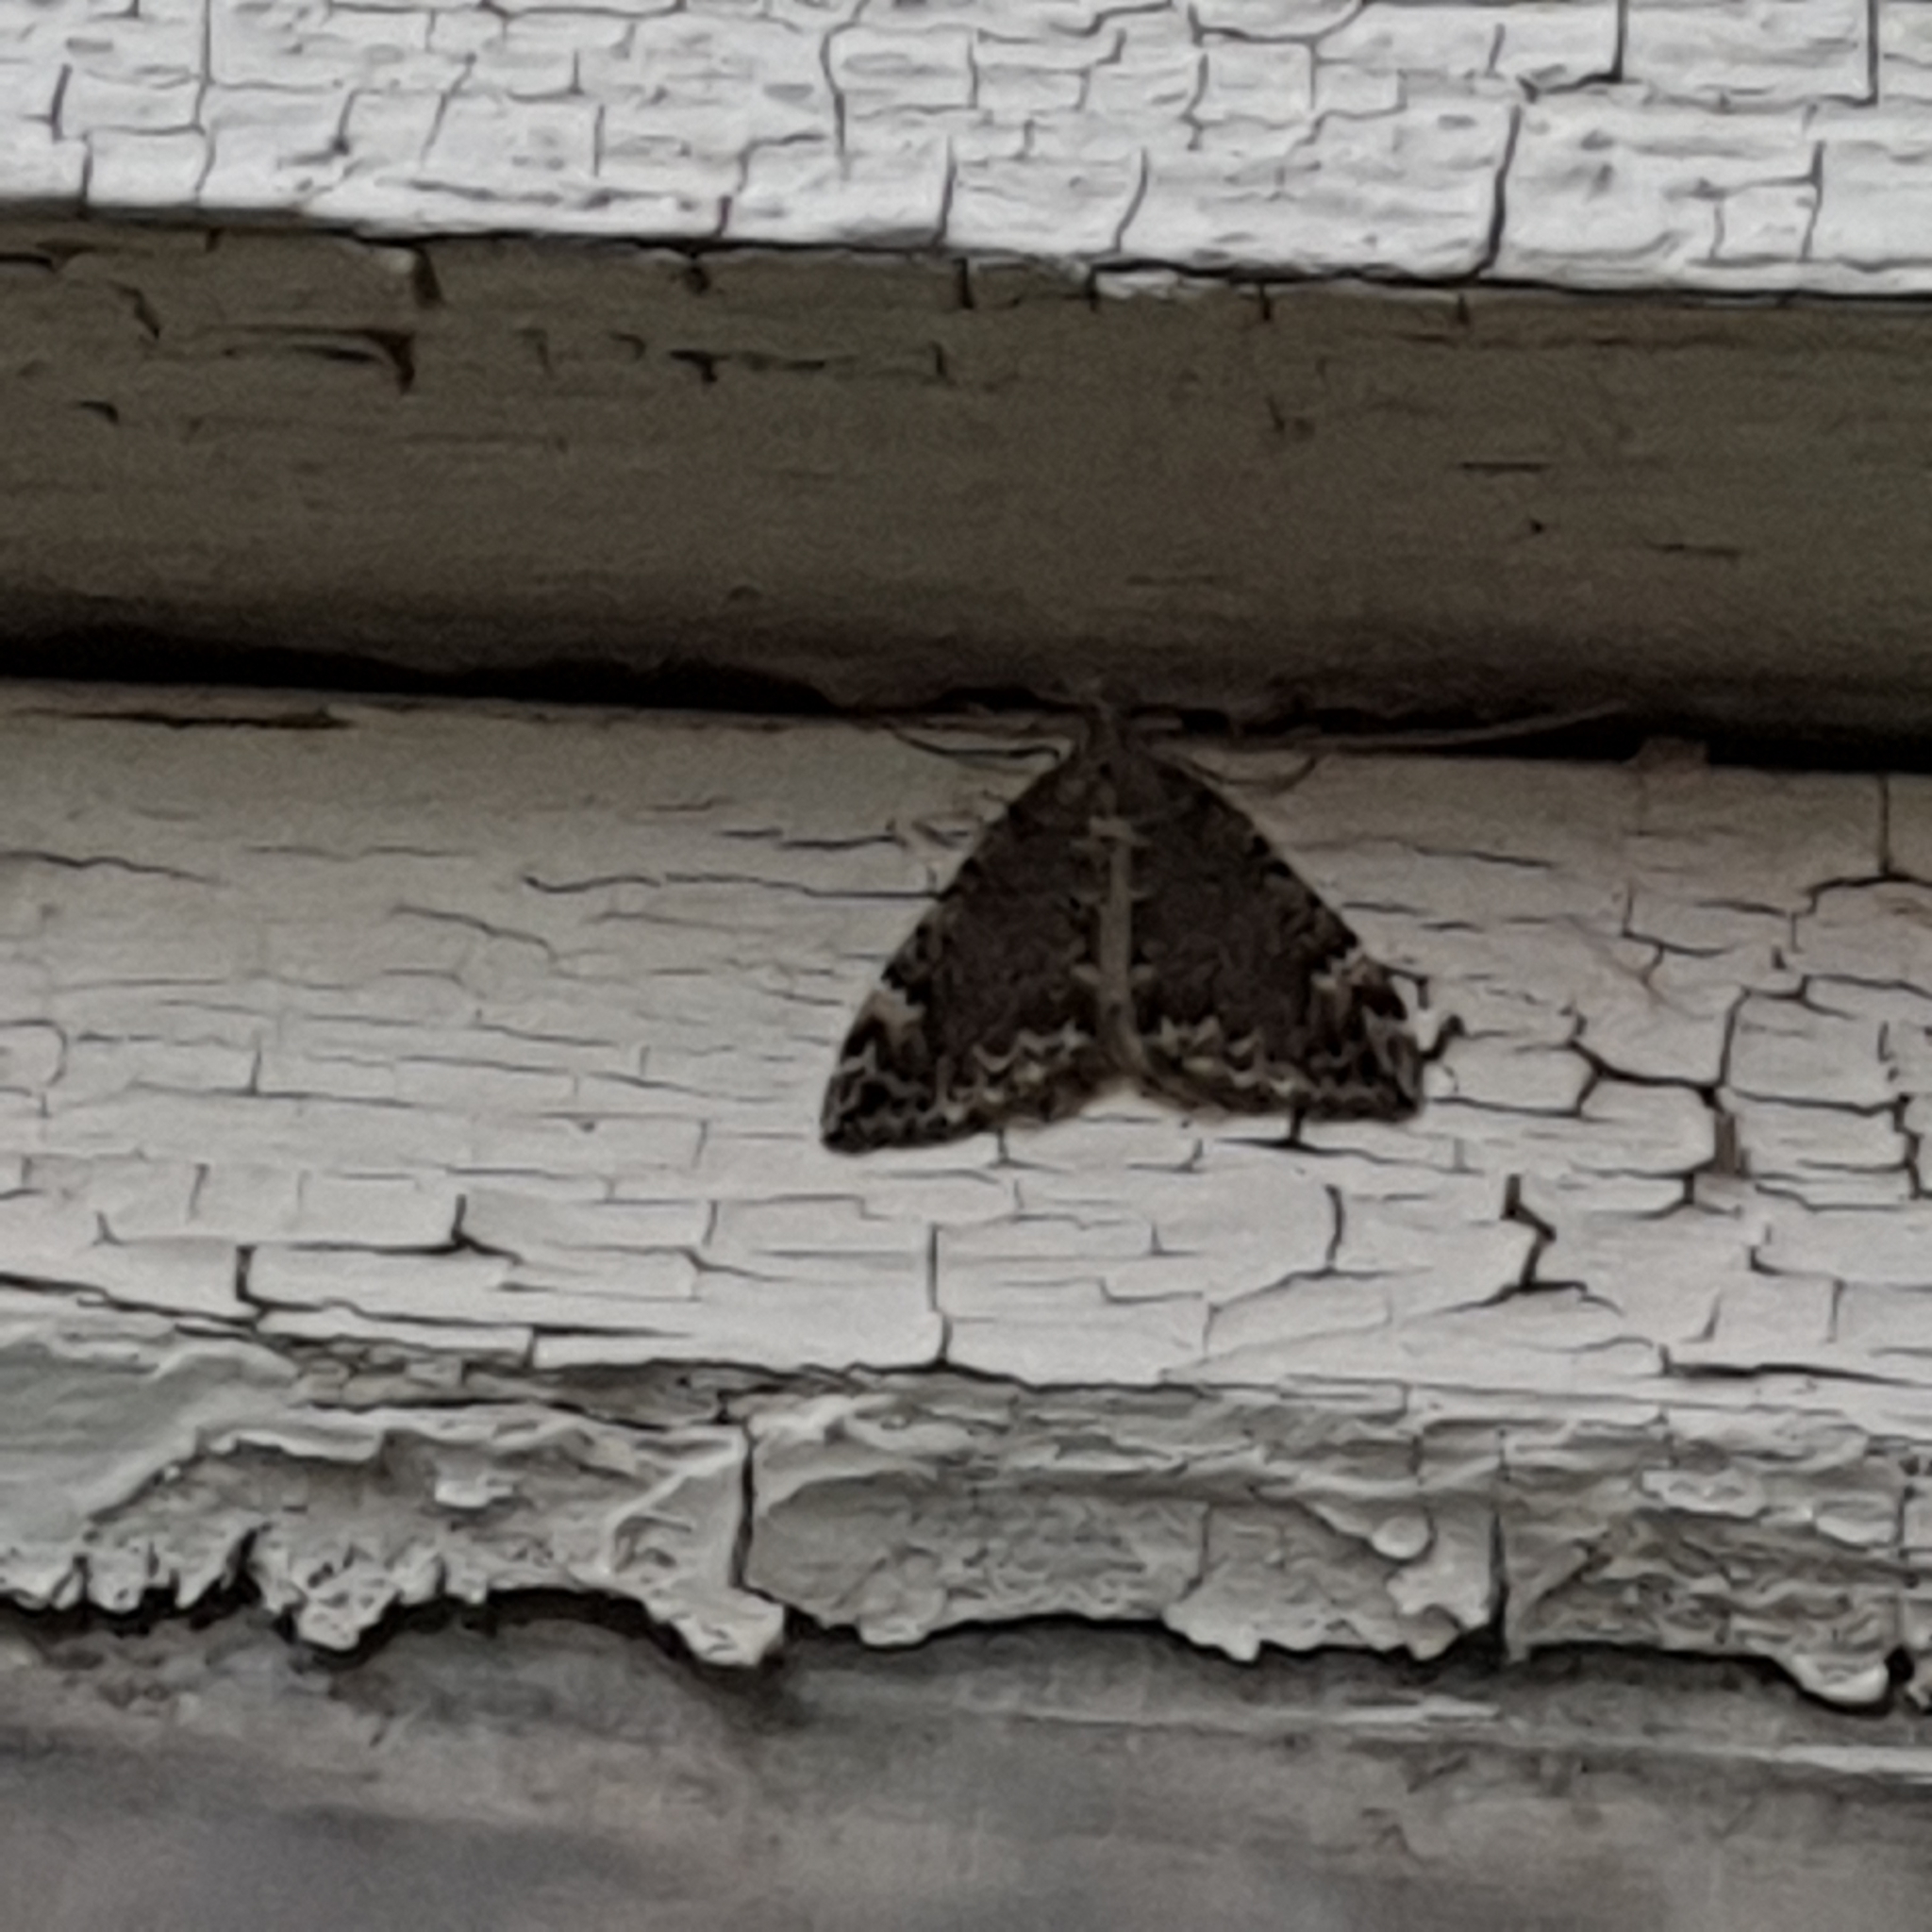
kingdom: Animalia
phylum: Arthropoda
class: Insecta
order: Lepidoptera
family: Geometridae
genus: Dysstroma
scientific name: Dysstroma truncata
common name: Common marbled carpet
